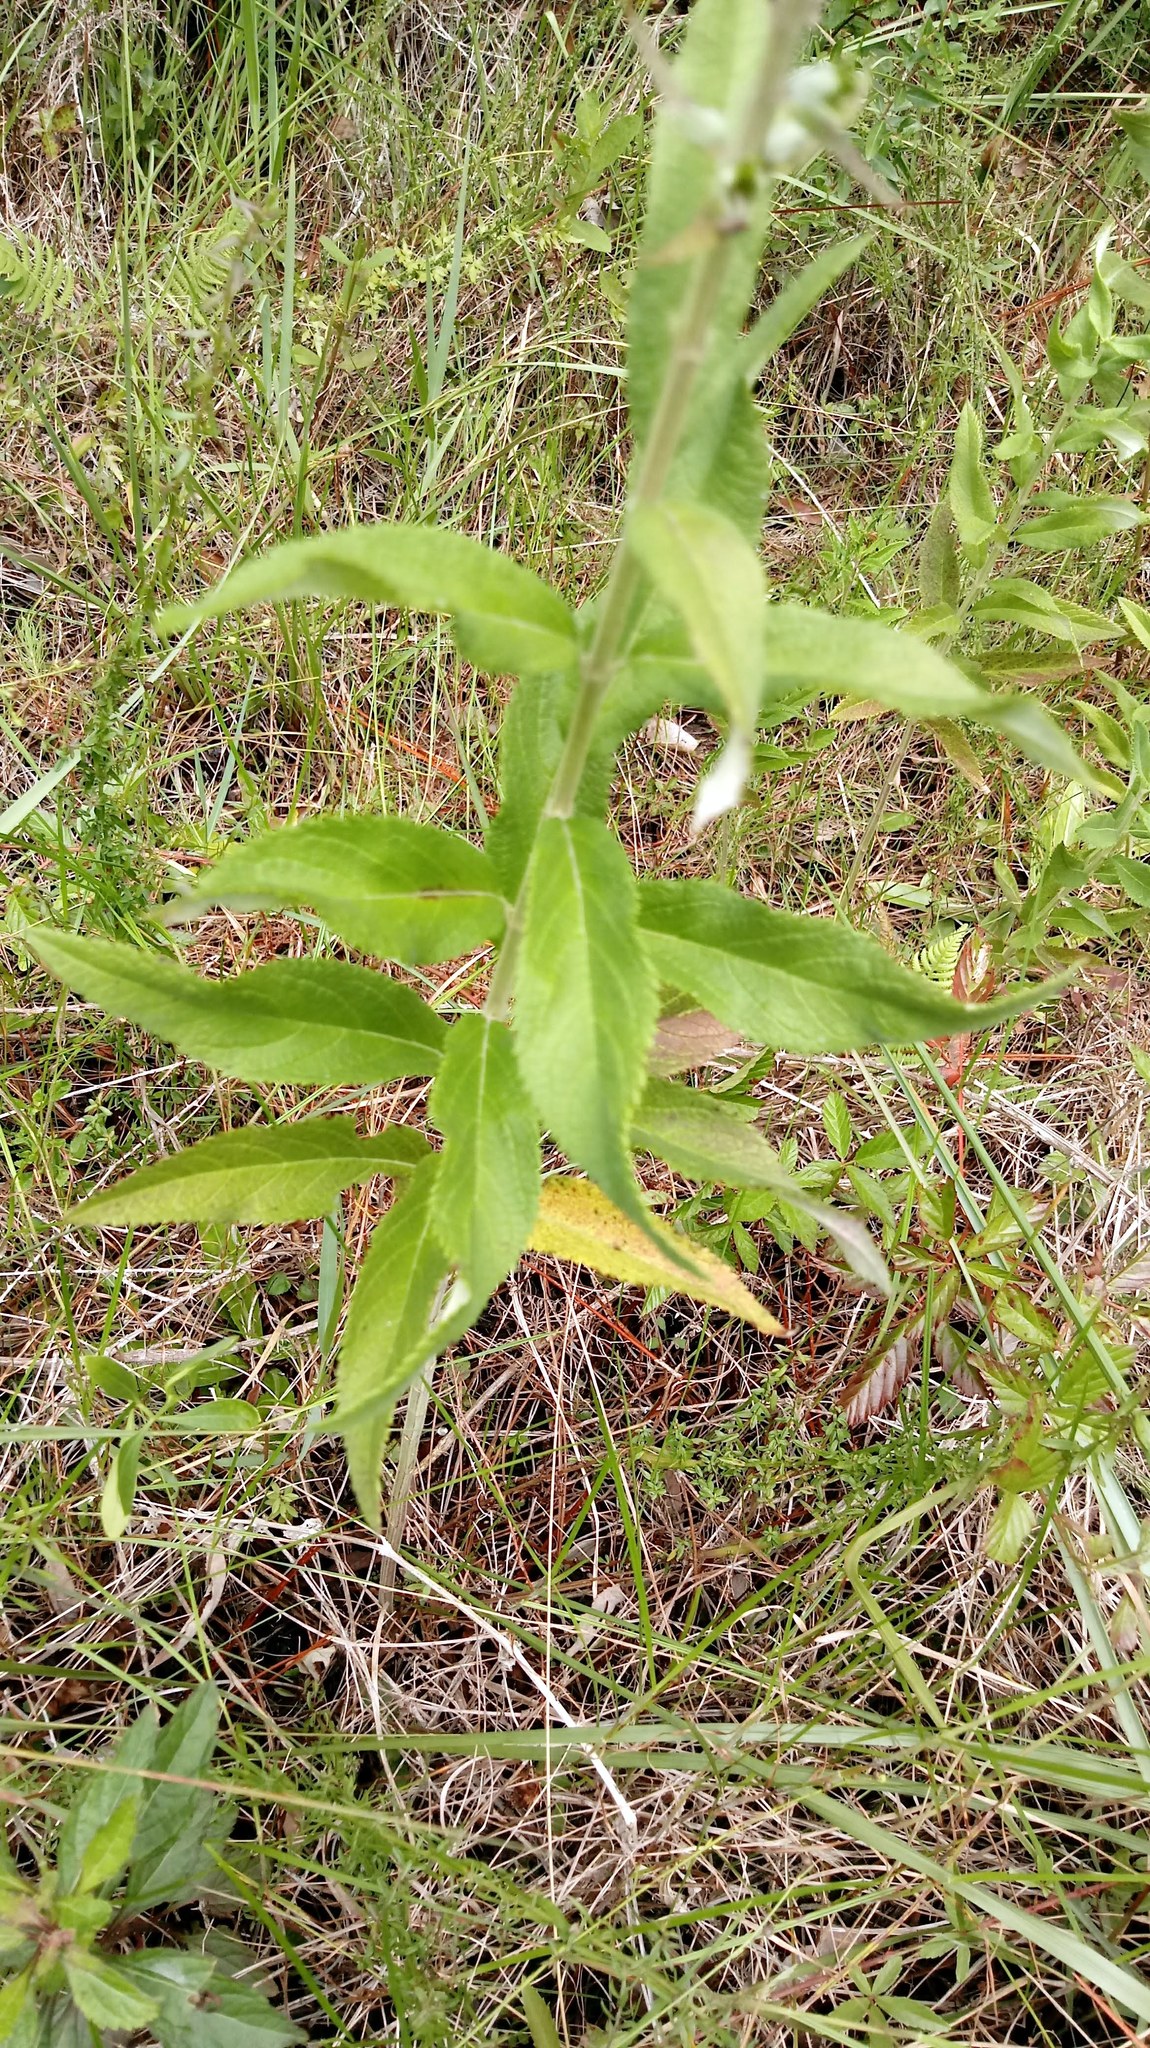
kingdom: Plantae
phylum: Tracheophyta
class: Magnoliopsida
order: Lamiales
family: Lamiaceae
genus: Teucrium
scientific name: Teucrium canadense
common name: American germander
